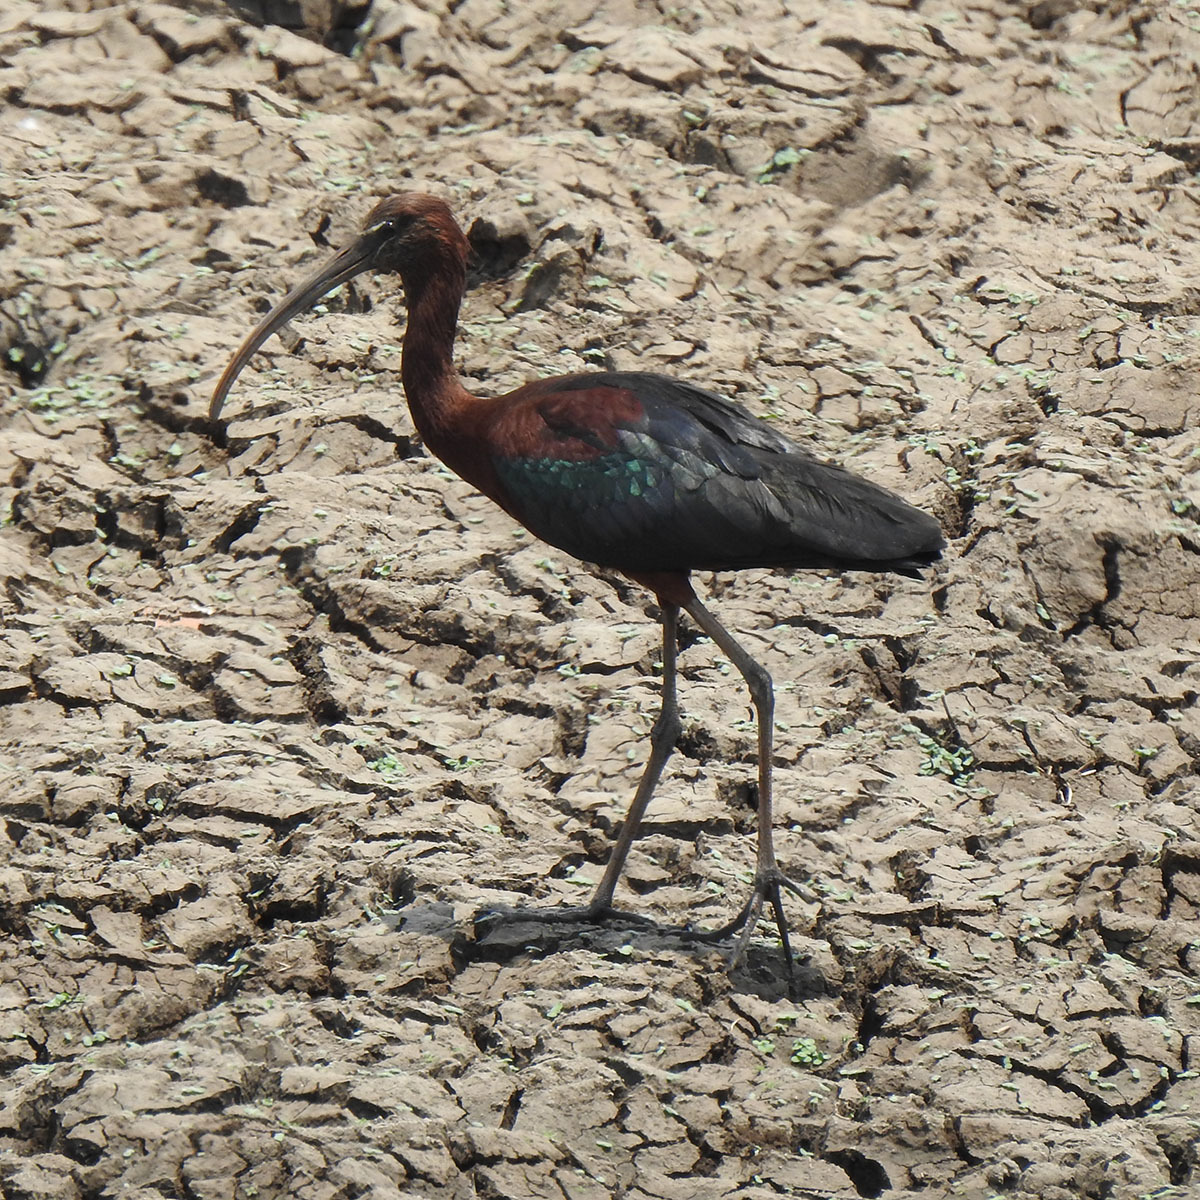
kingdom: Animalia
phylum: Chordata
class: Aves
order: Pelecaniformes
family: Threskiornithidae
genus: Plegadis
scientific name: Plegadis falcinellus
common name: Glossy ibis
